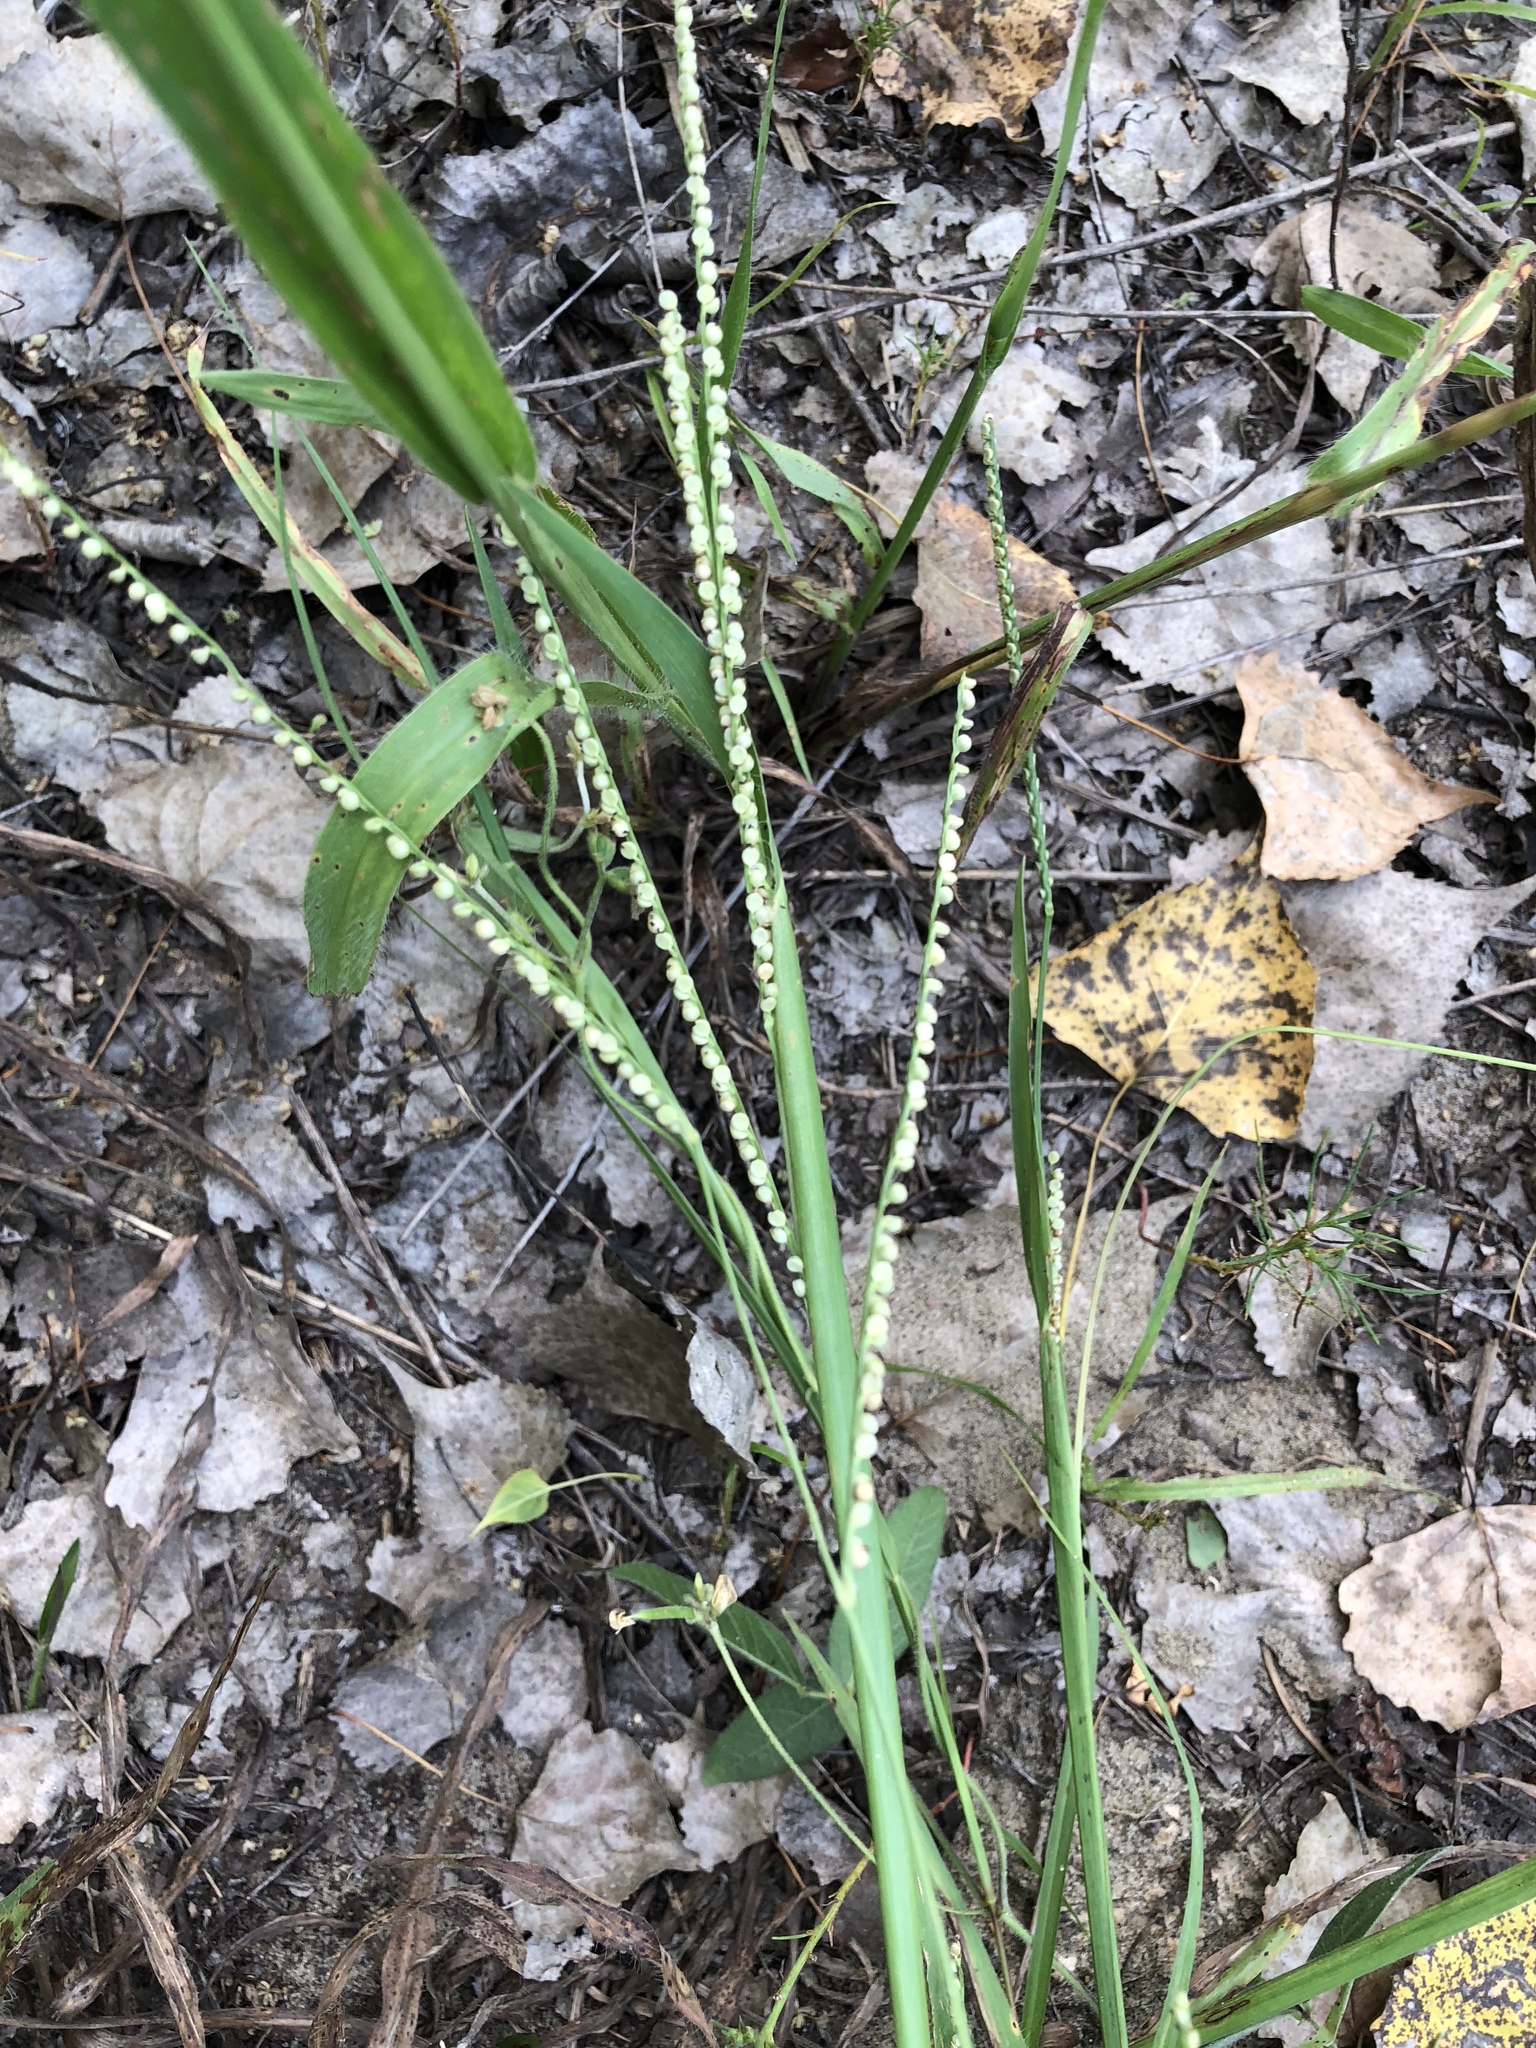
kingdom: Plantae
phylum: Tracheophyta
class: Liliopsida
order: Poales
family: Poaceae
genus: Paspalum
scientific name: Paspalum setaceum
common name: Slender paspalum
